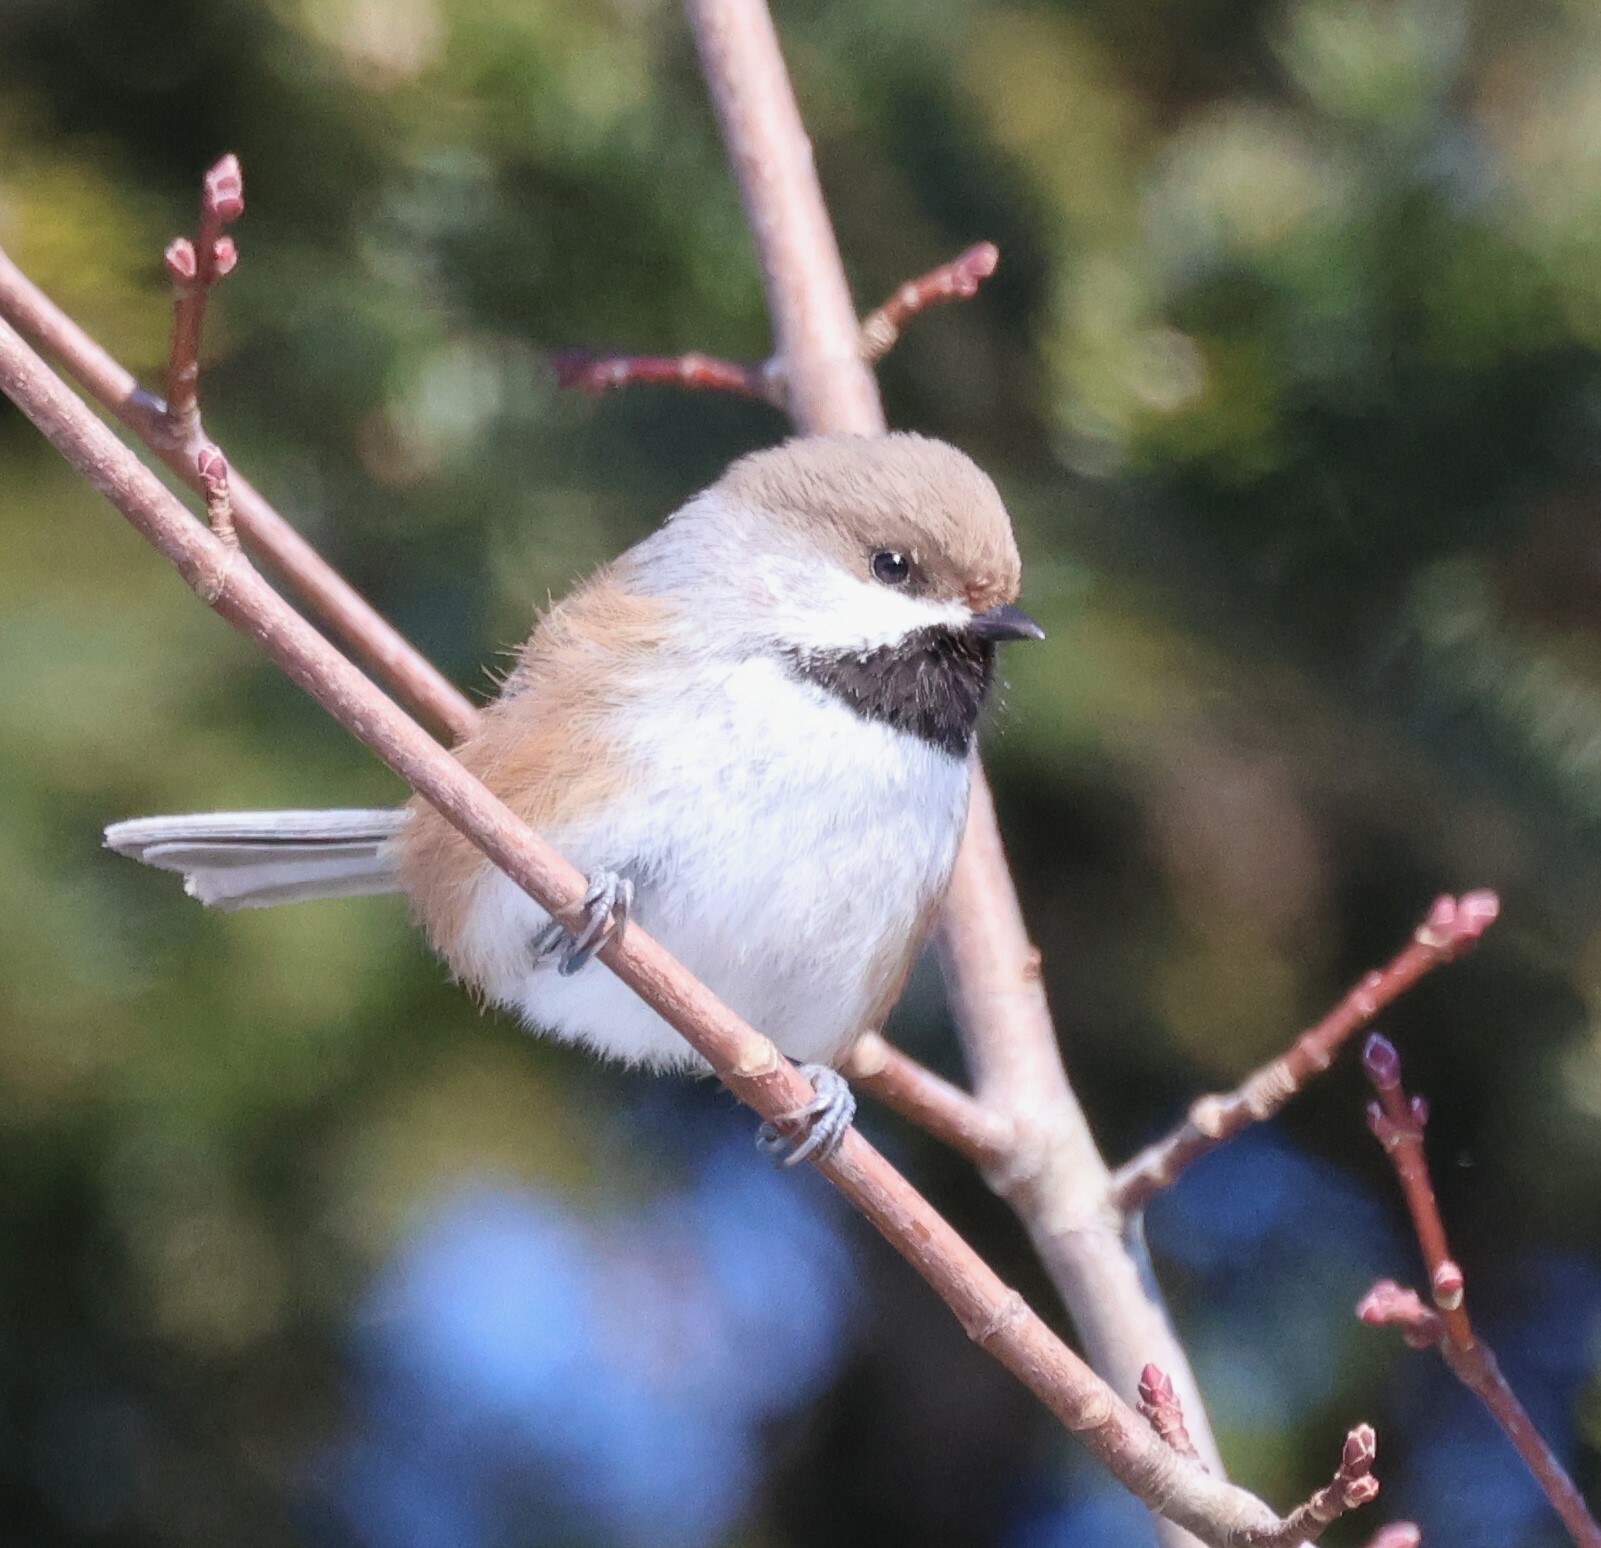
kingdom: Animalia
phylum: Chordata
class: Aves
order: Passeriformes
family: Paridae
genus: Poecile
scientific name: Poecile hudsonicus
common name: Boreal chickadee
